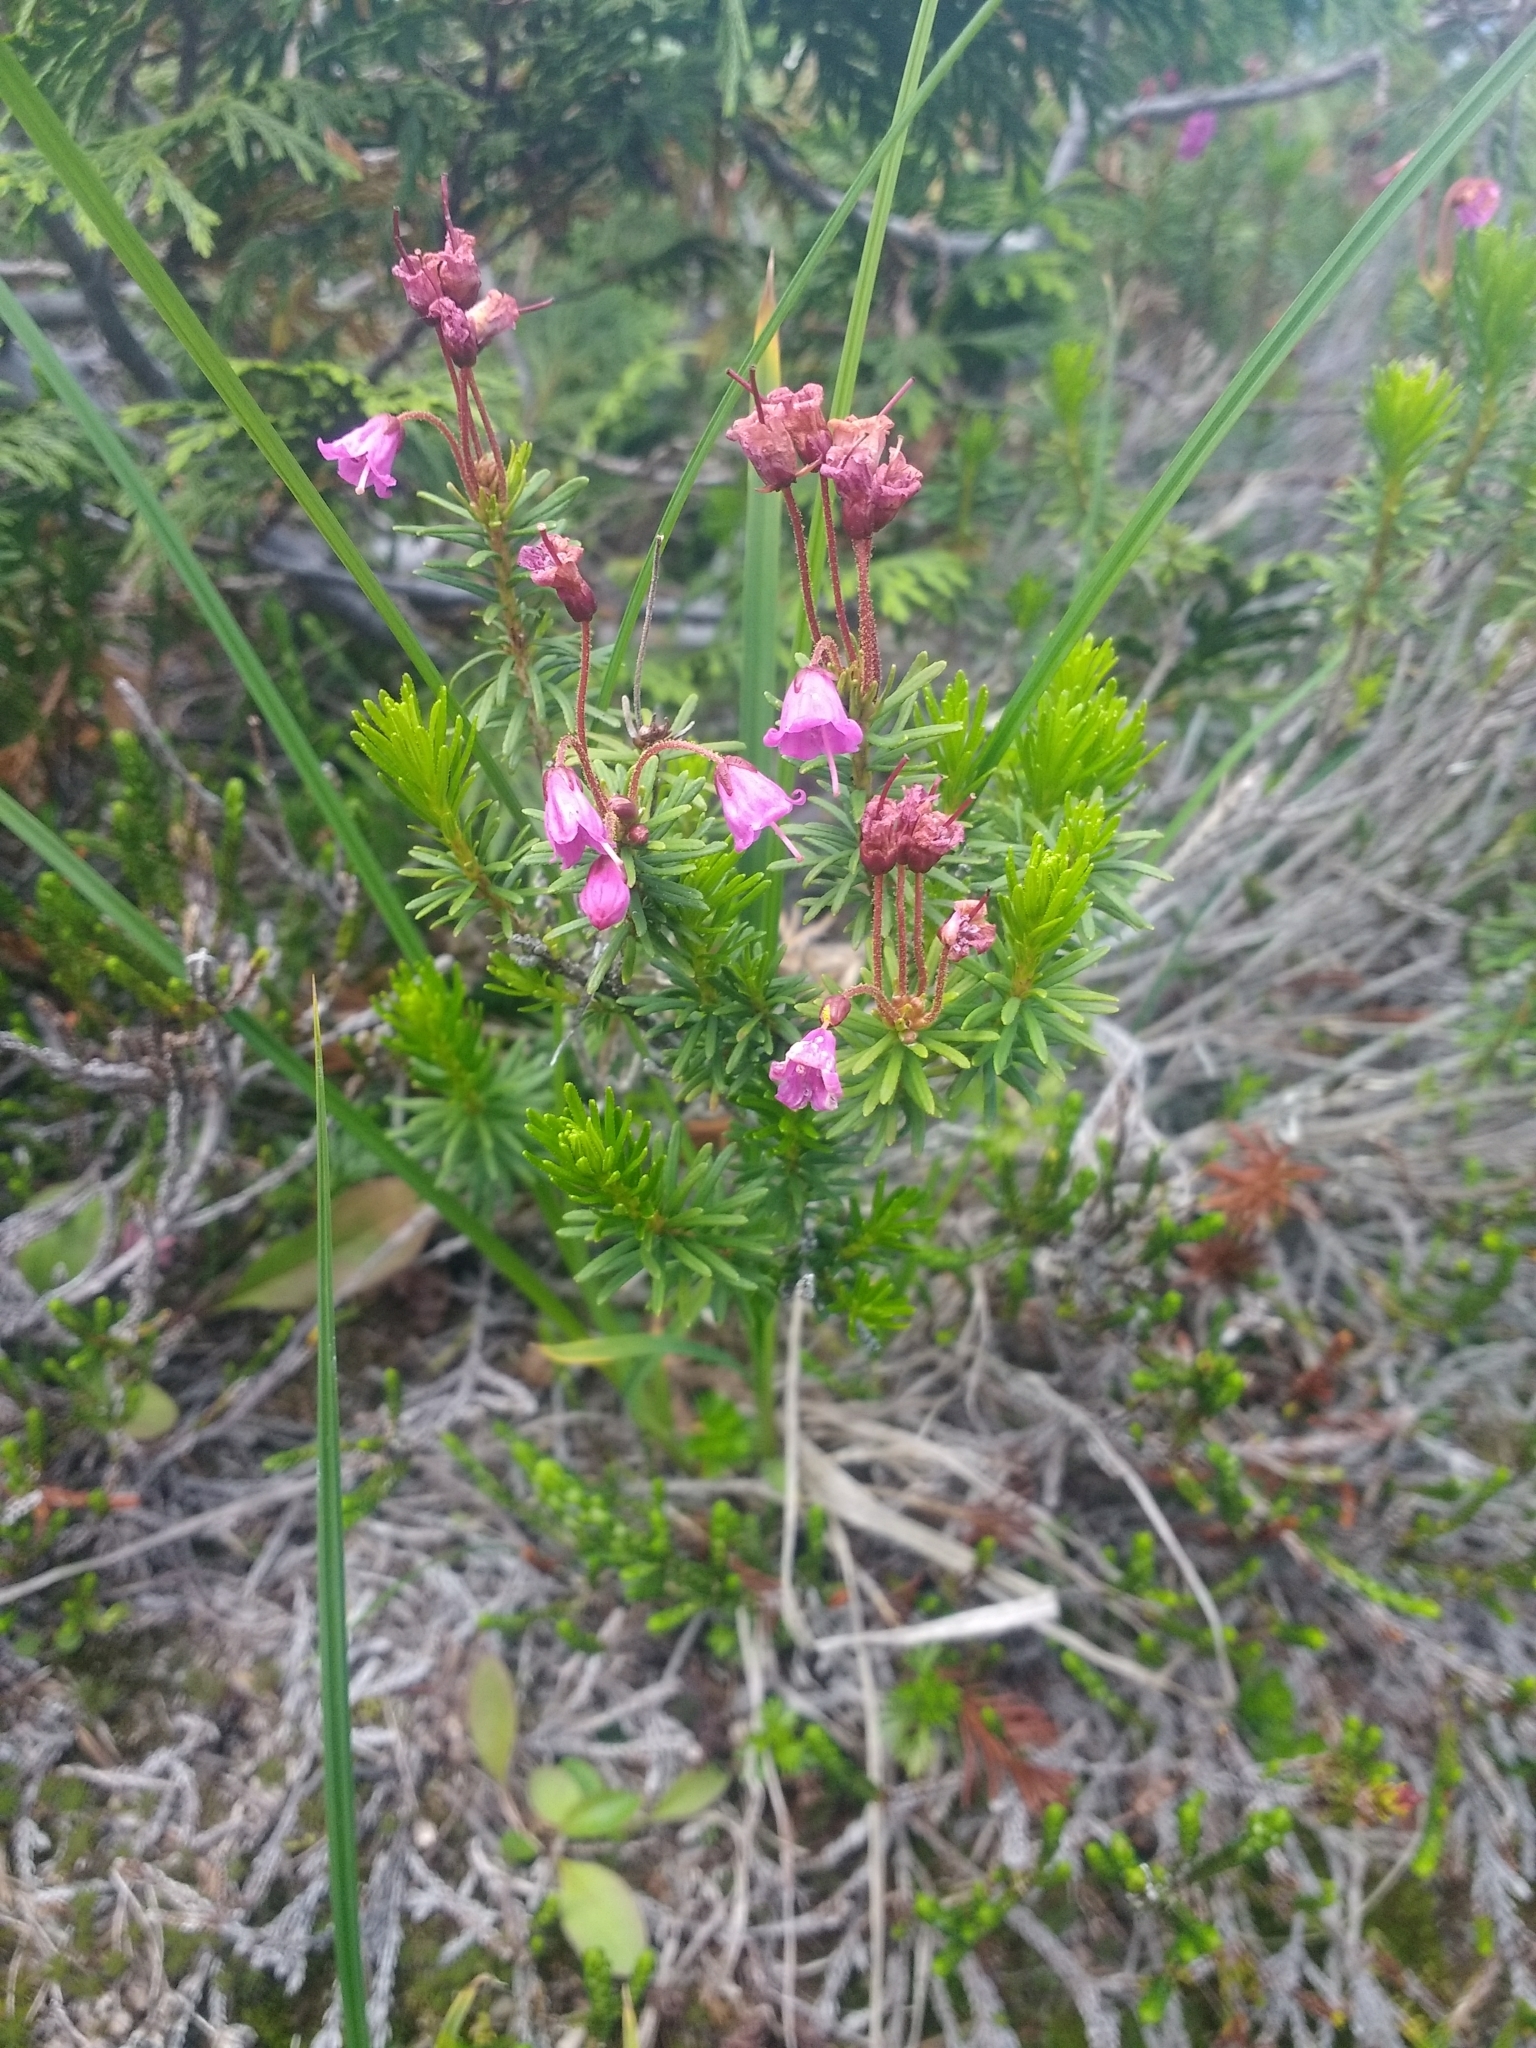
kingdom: Plantae
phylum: Tracheophyta
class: Magnoliopsida
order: Ericales
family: Ericaceae
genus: Phyllodoce
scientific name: Phyllodoce empetriformis
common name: Pink mountain heather
